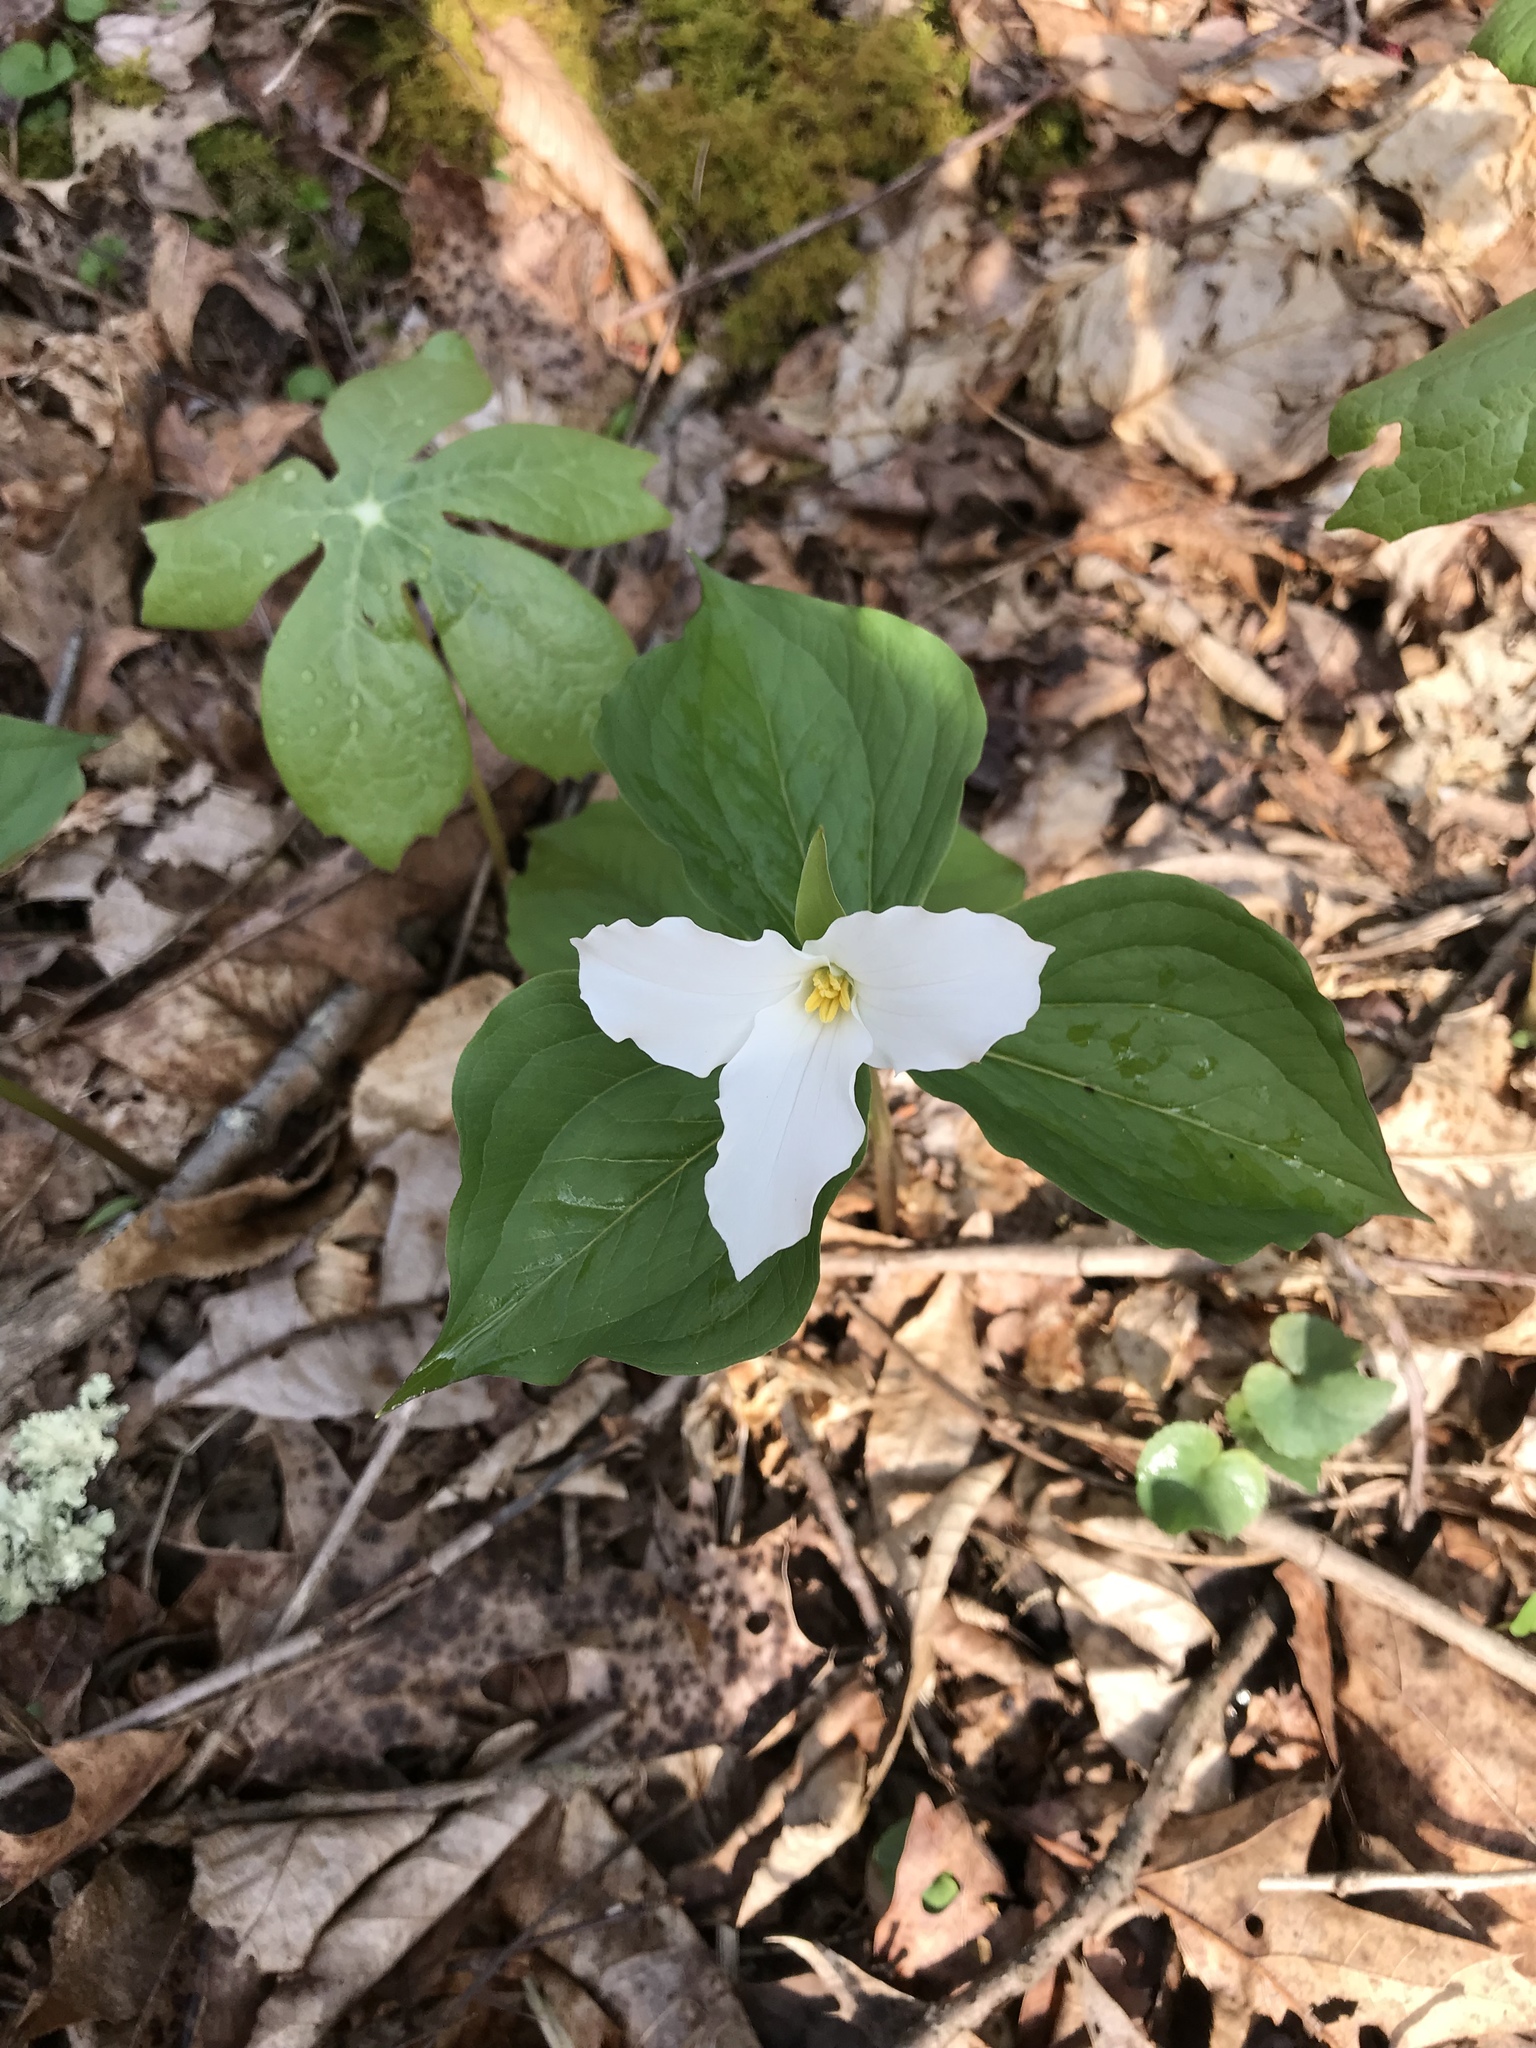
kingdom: Plantae
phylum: Tracheophyta
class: Liliopsida
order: Liliales
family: Melanthiaceae
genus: Trillium
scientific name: Trillium grandiflorum
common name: Great white trillium
